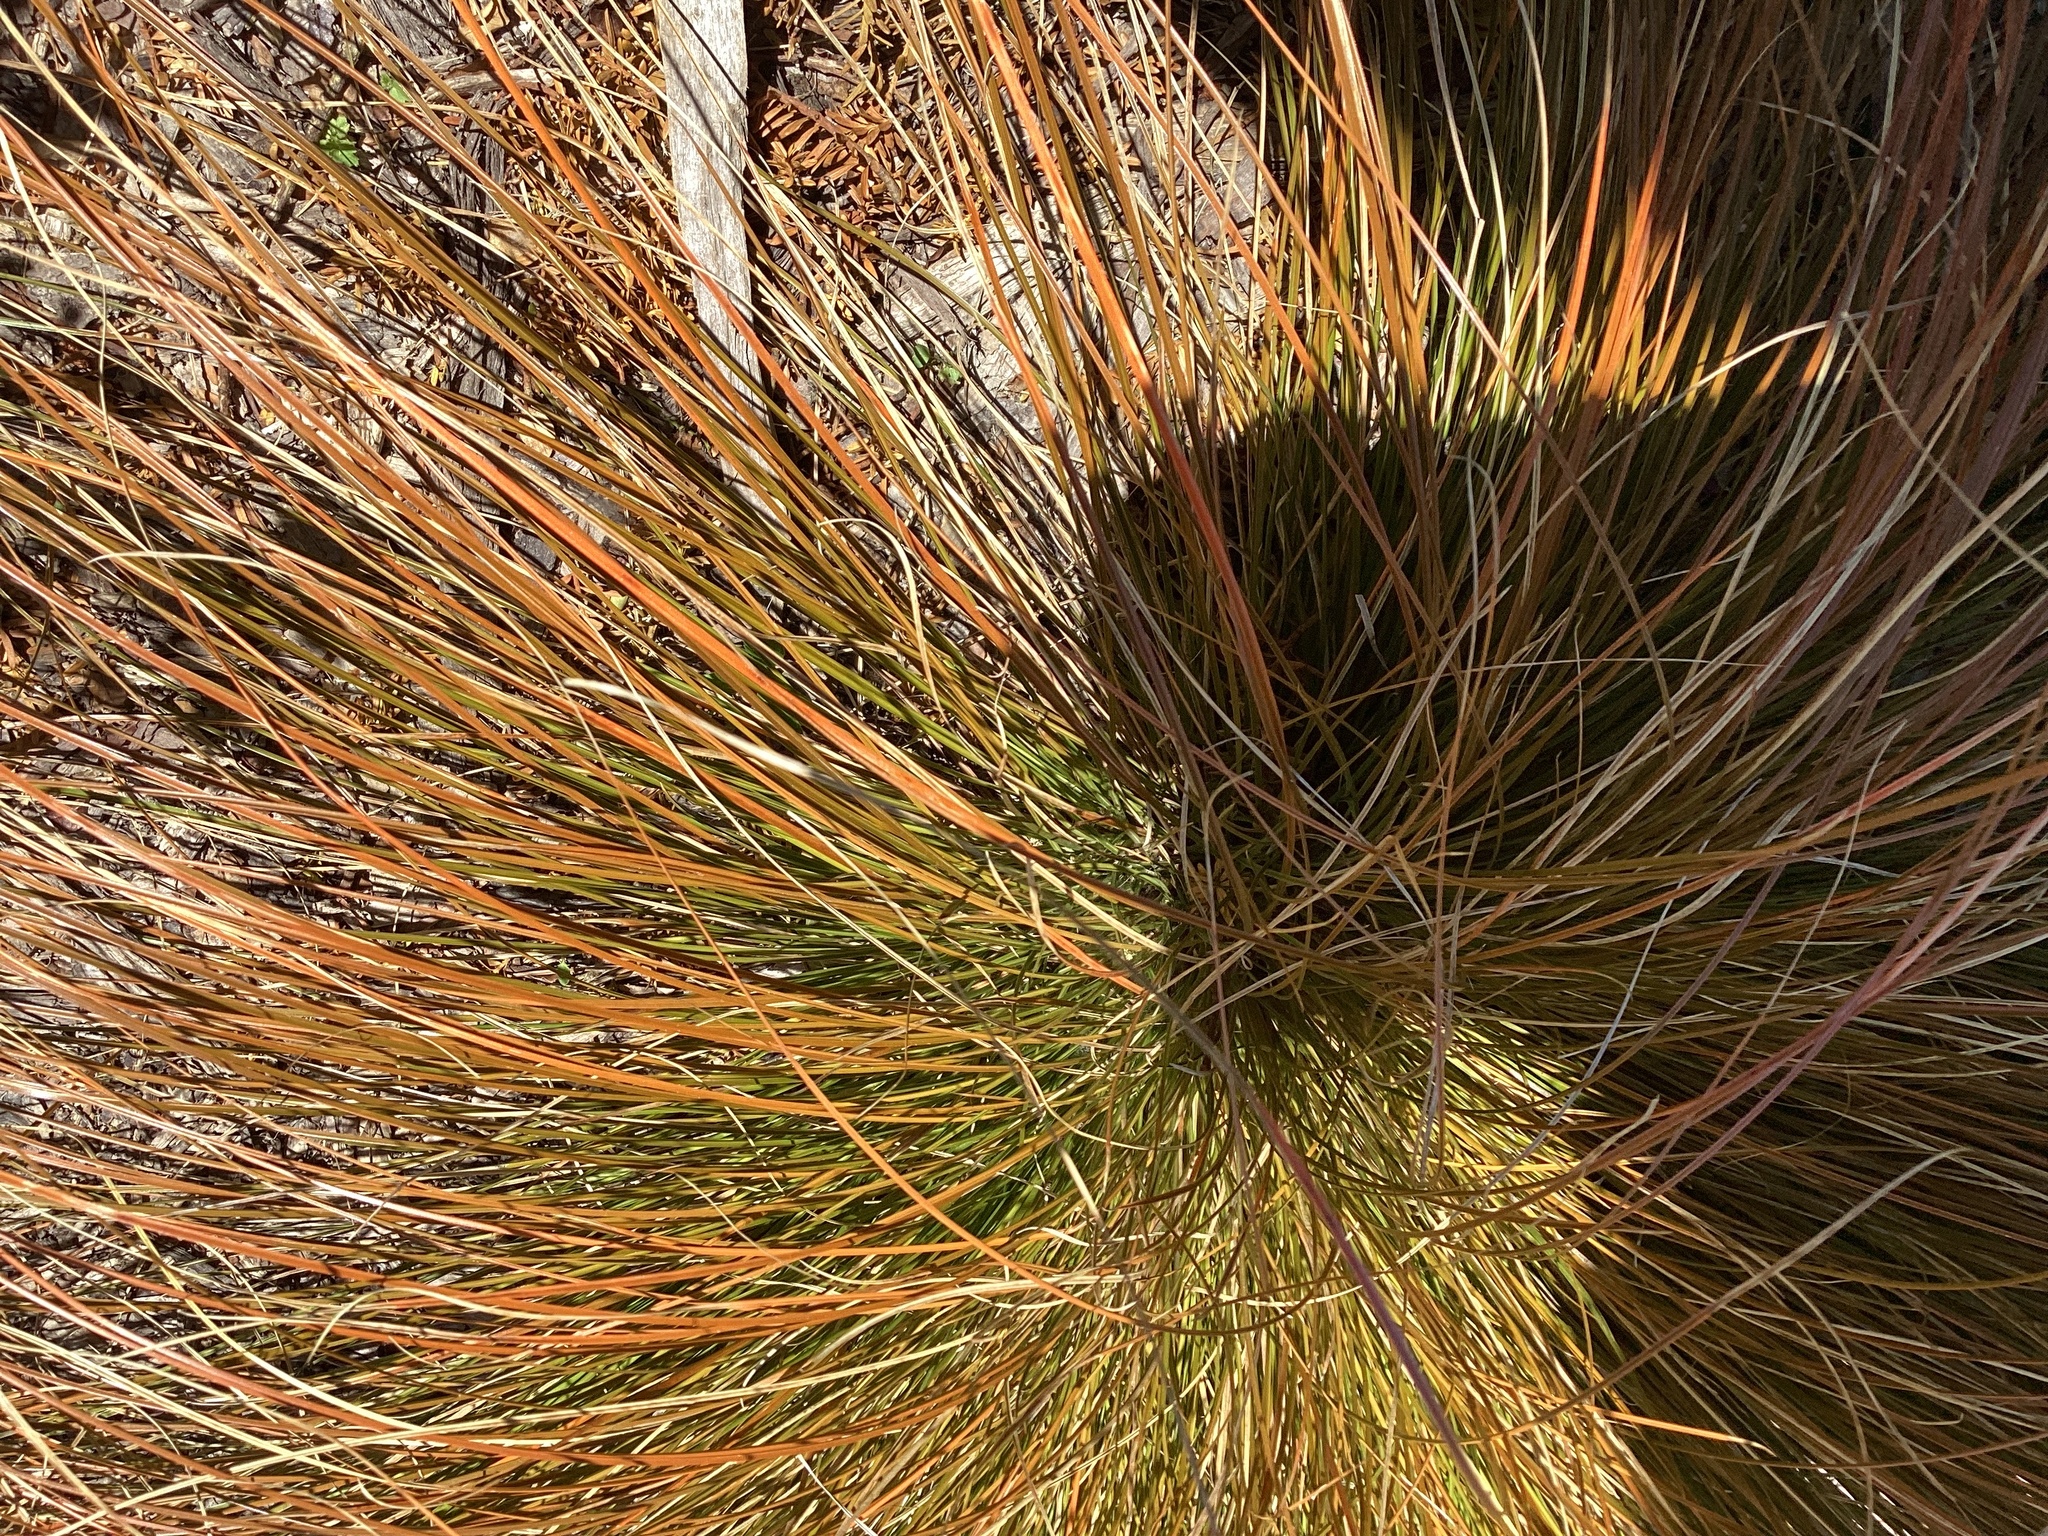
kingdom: Plantae
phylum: Tracheophyta
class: Liliopsida
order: Poales
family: Cyperaceae
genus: Carex
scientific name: Carex testacea
